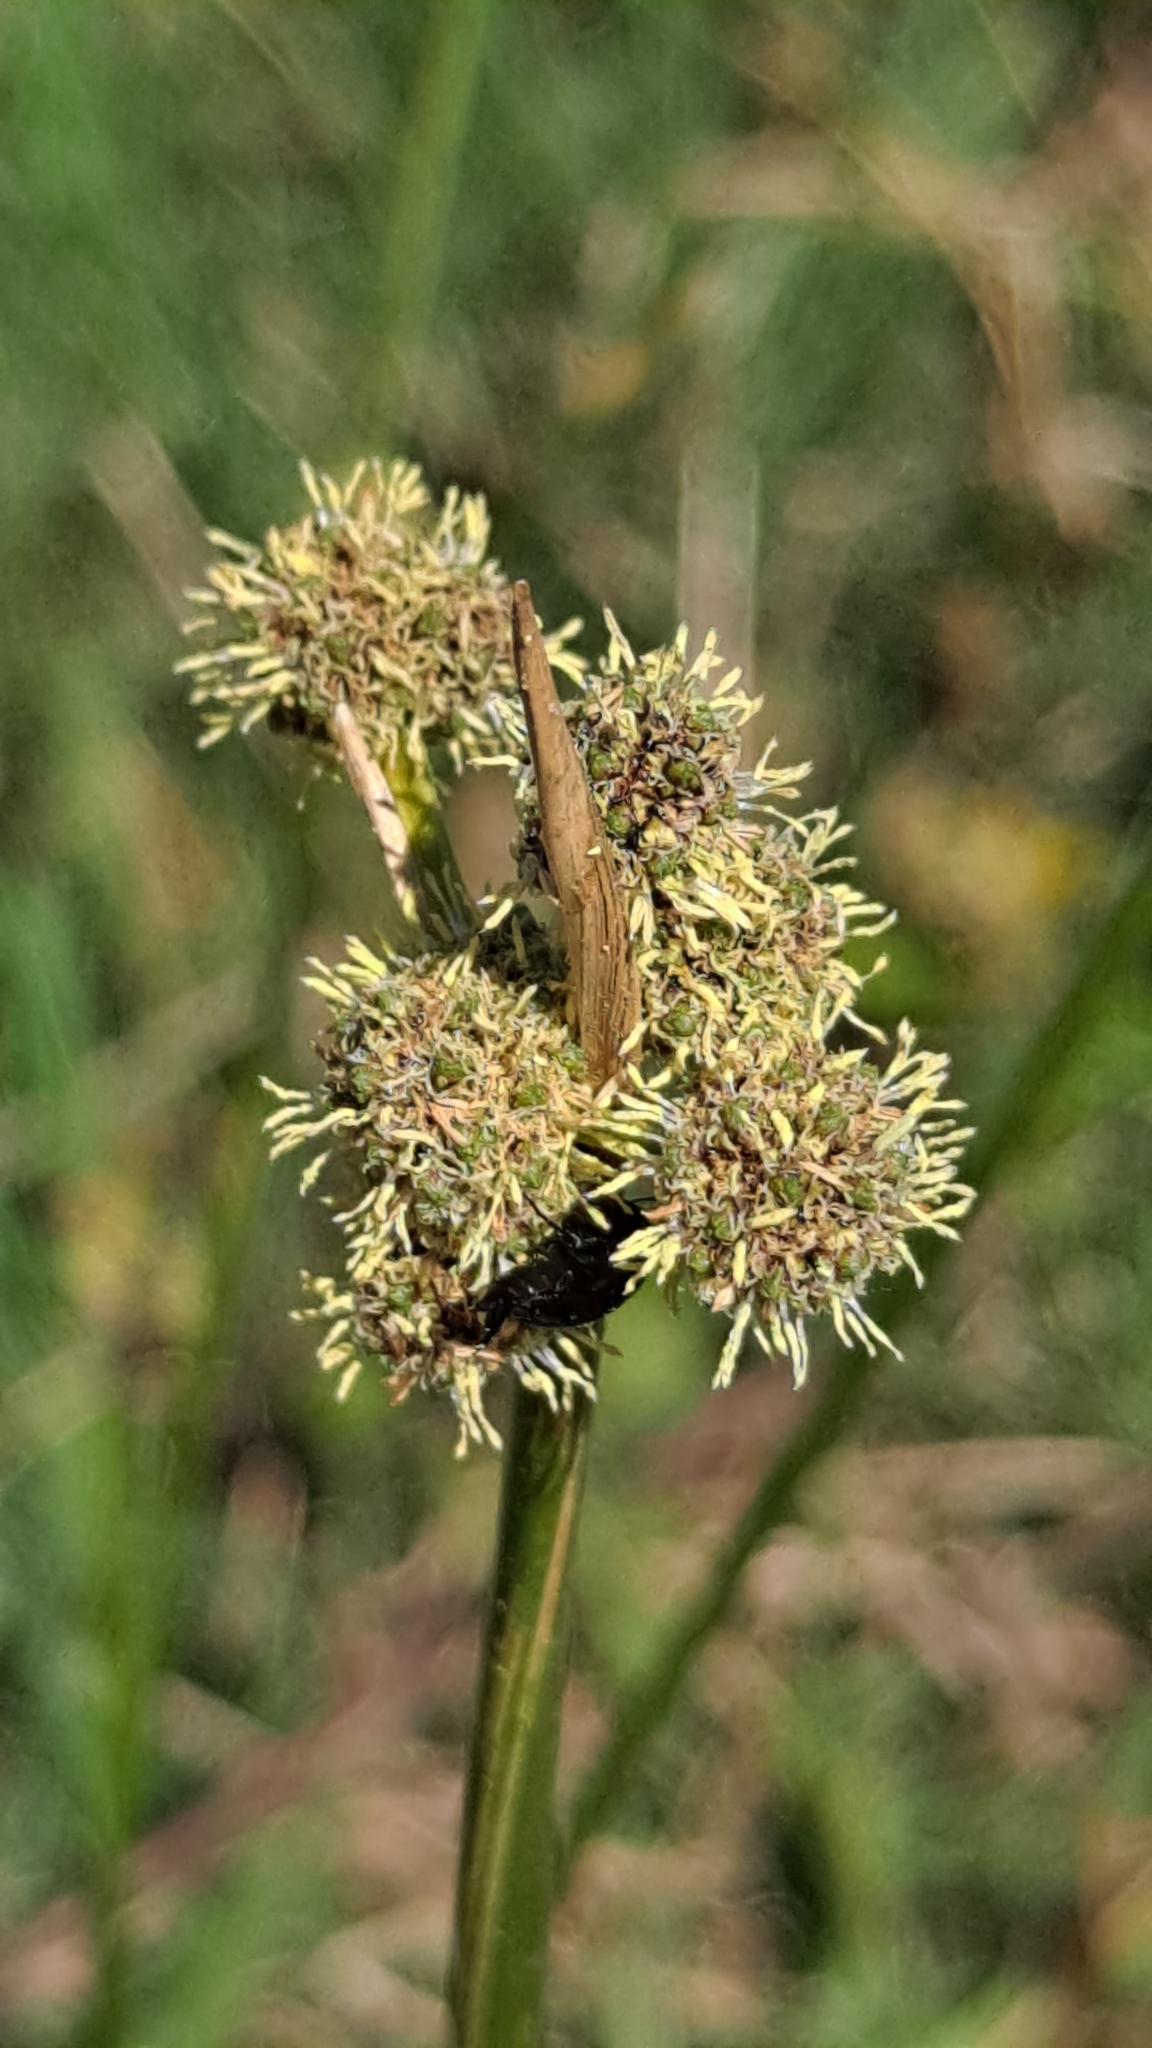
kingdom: Plantae
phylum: Tracheophyta
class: Liliopsida
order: Poales
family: Cyperaceae
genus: Scirpoides
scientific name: Scirpoides holoschoenus
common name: Round-headed club-rush
